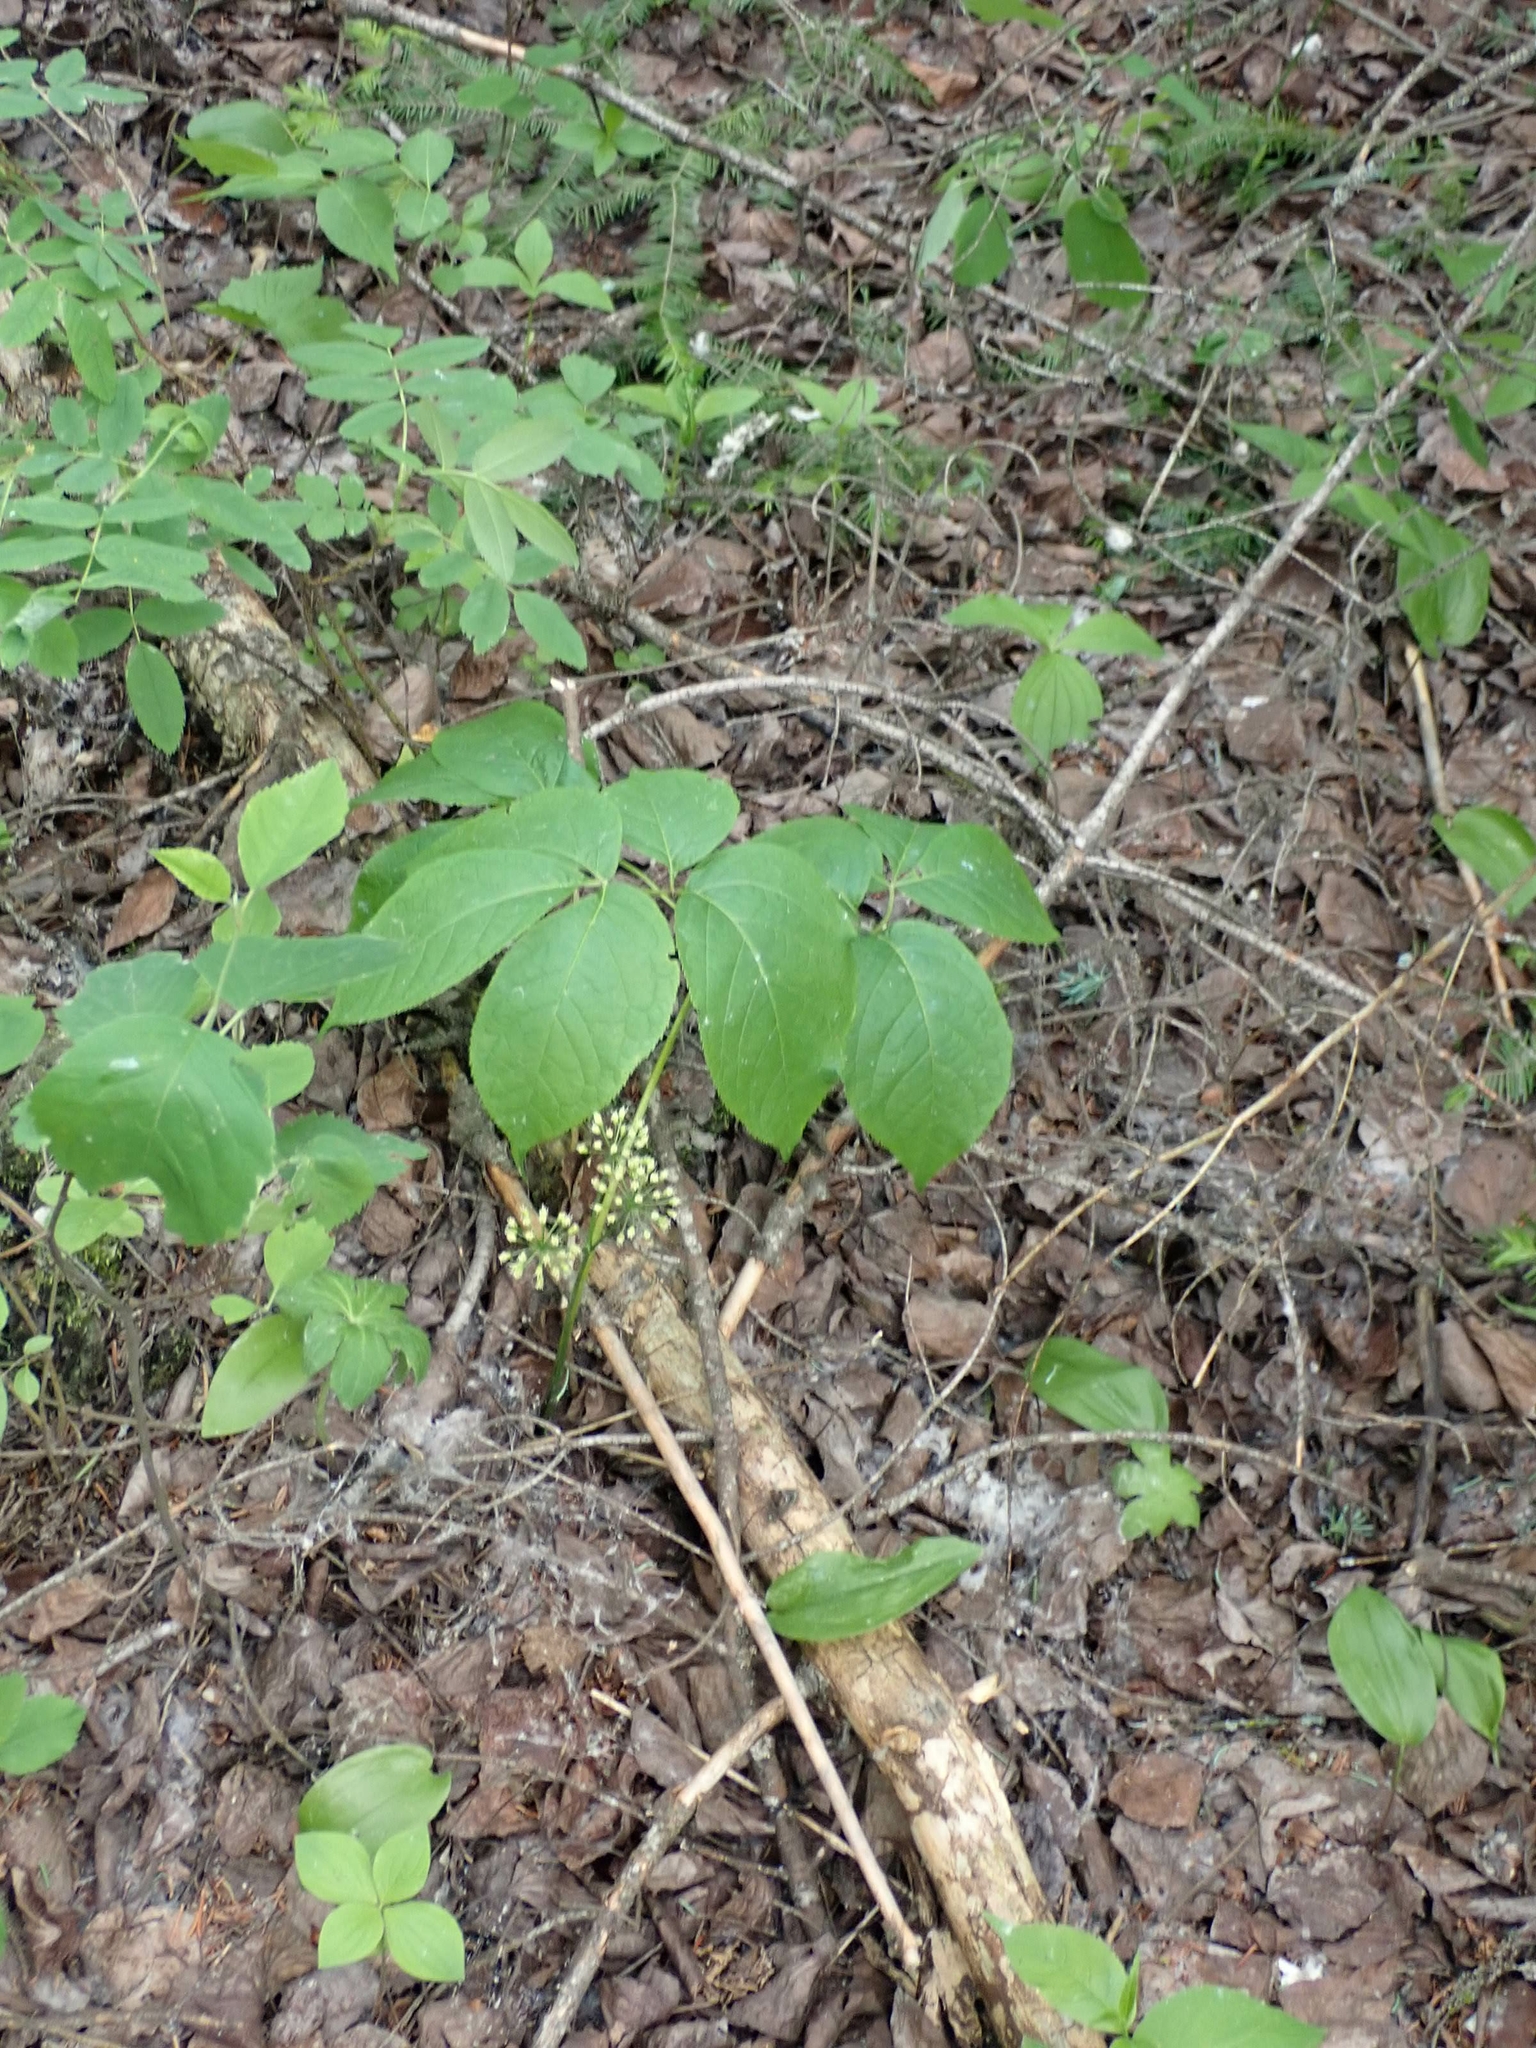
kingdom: Plantae
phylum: Tracheophyta
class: Magnoliopsida
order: Apiales
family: Araliaceae
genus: Aralia
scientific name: Aralia nudicaulis
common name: Wild sarsaparilla
